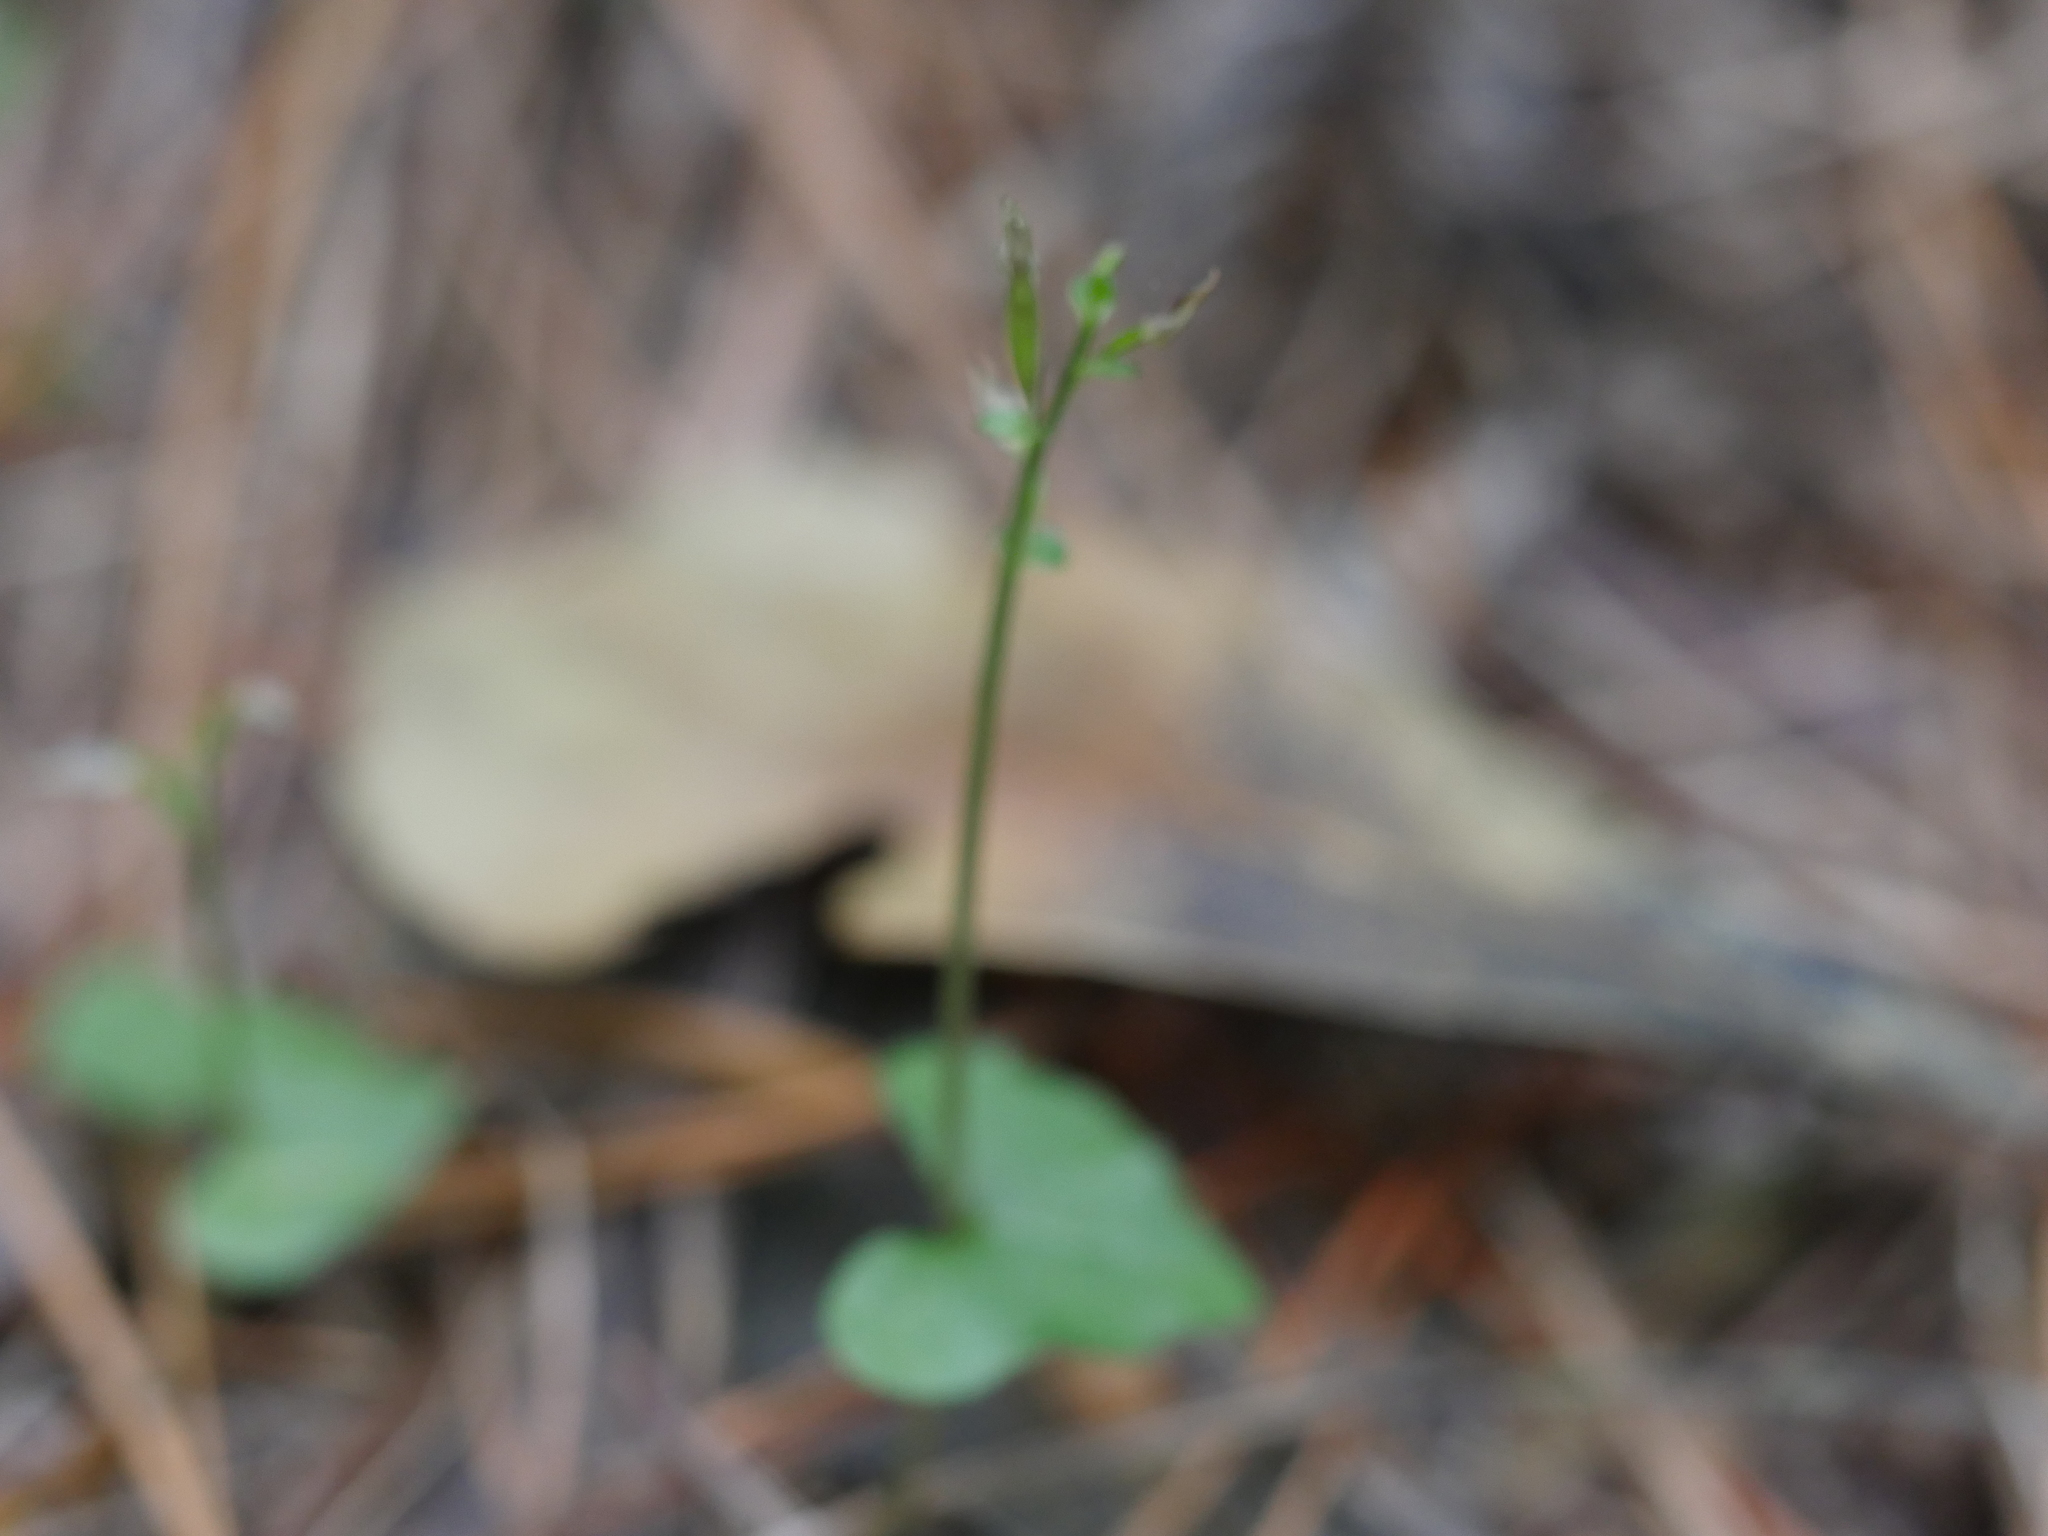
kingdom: Plantae
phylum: Tracheophyta
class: Liliopsida
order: Asparagales
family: Orchidaceae
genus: Acianthus
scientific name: Acianthus sinclairii
